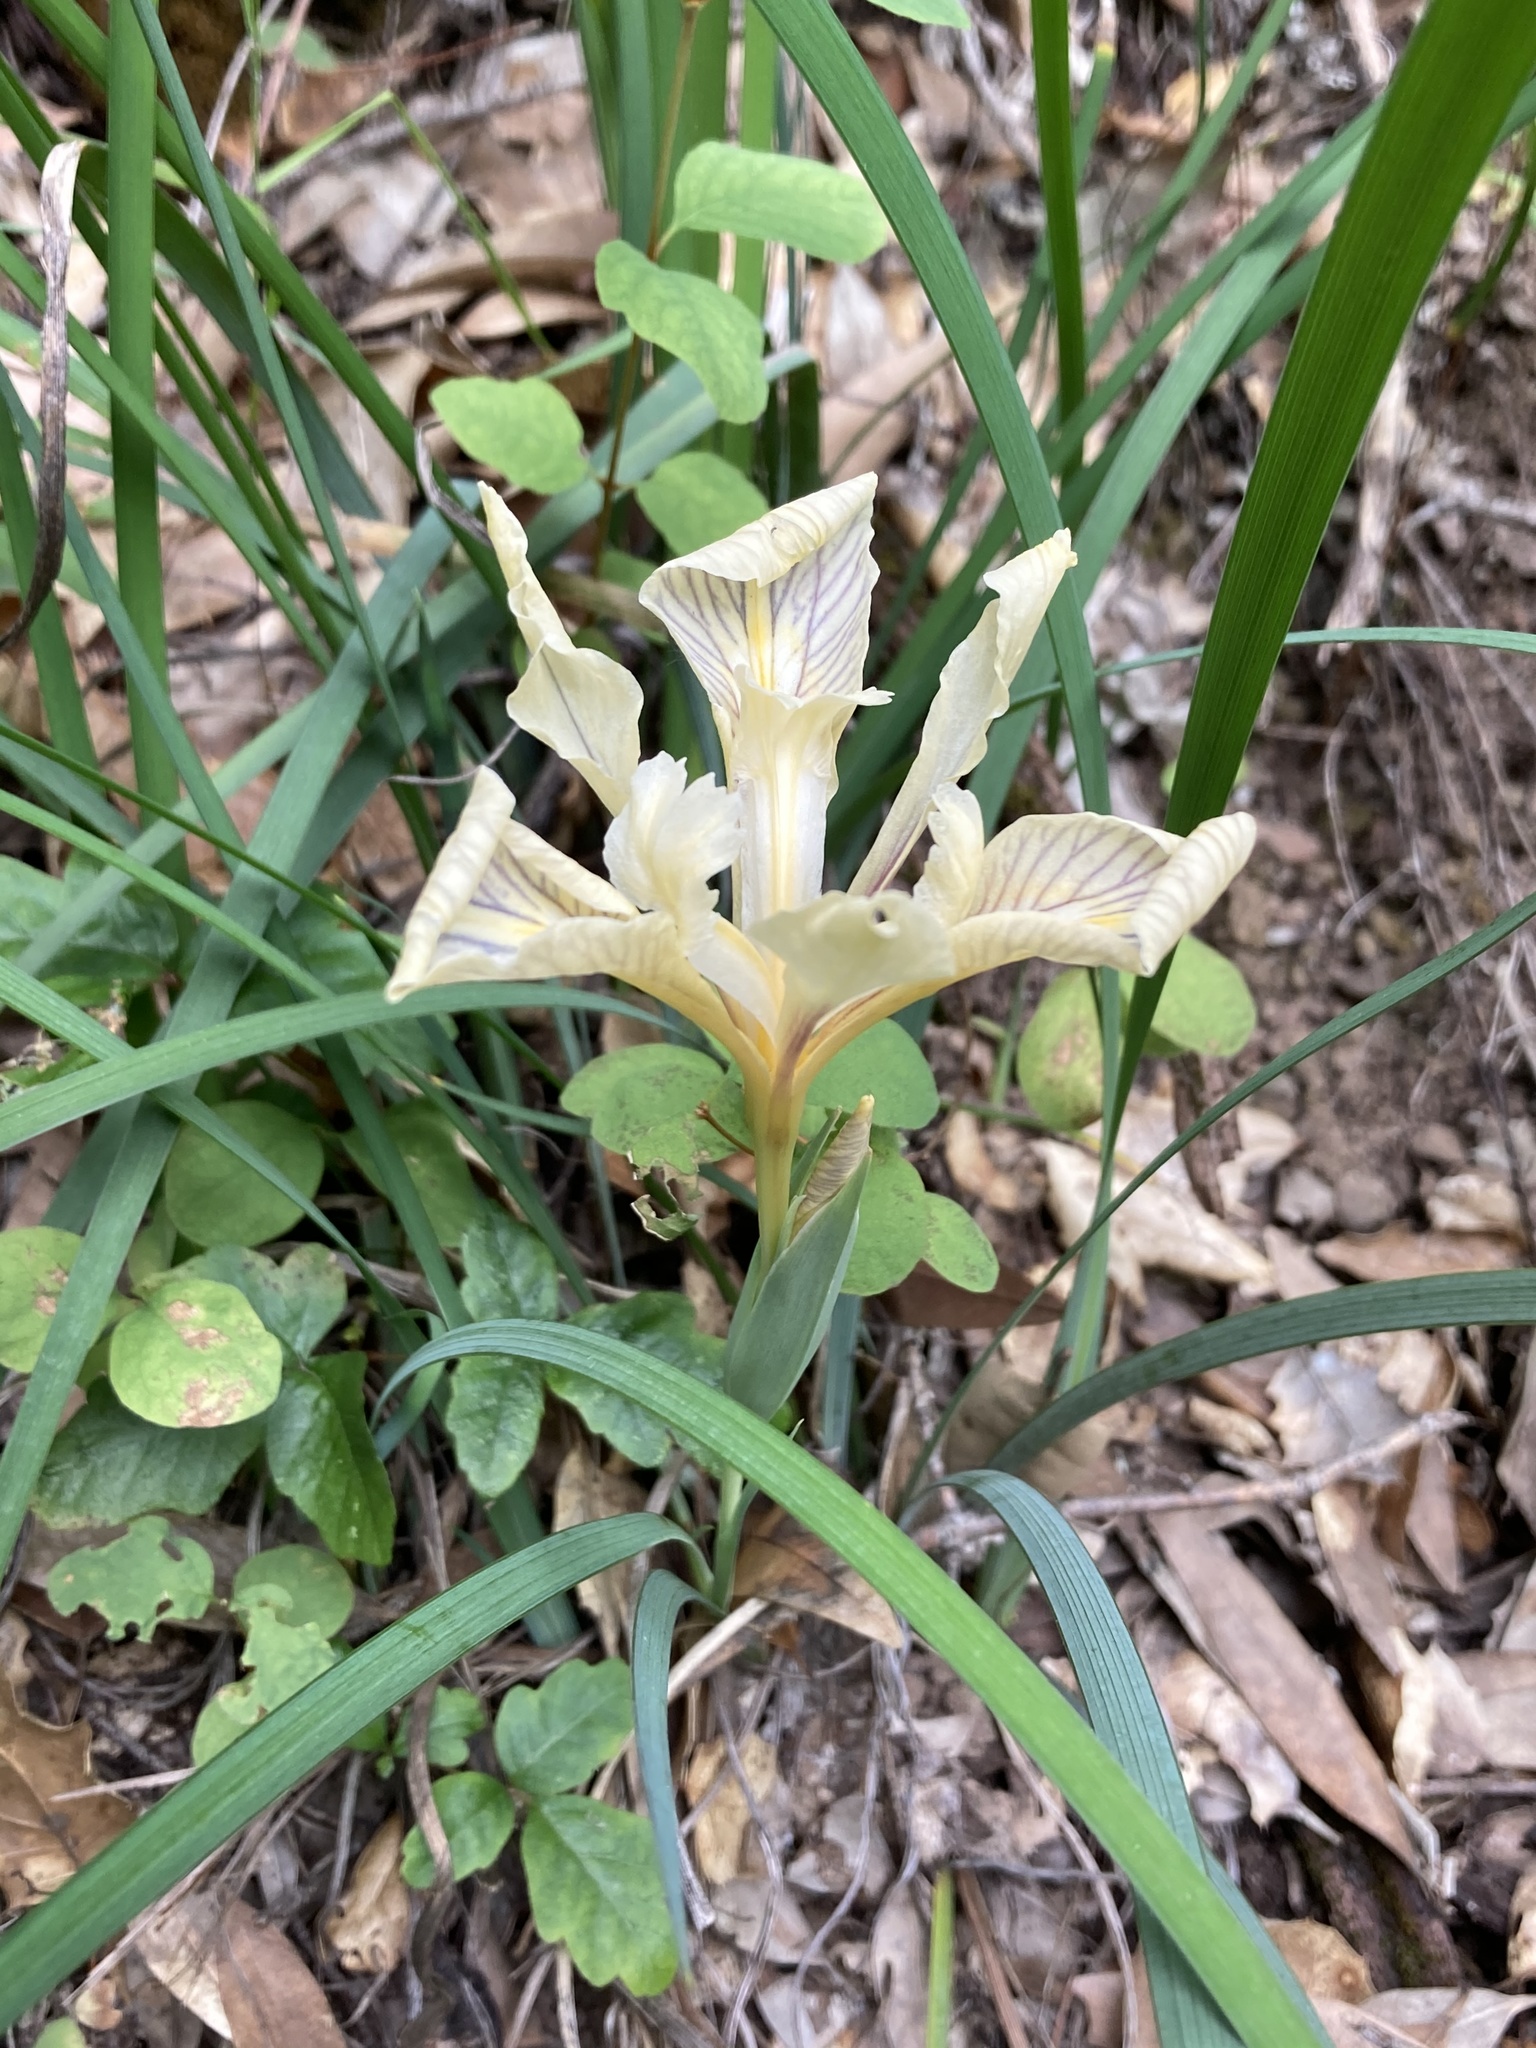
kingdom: Plantae
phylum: Tracheophyta
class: Liliopsida
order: Asparagales
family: Iridaceae
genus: Iris
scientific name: Iris fernaldii
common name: Fernald's iris
